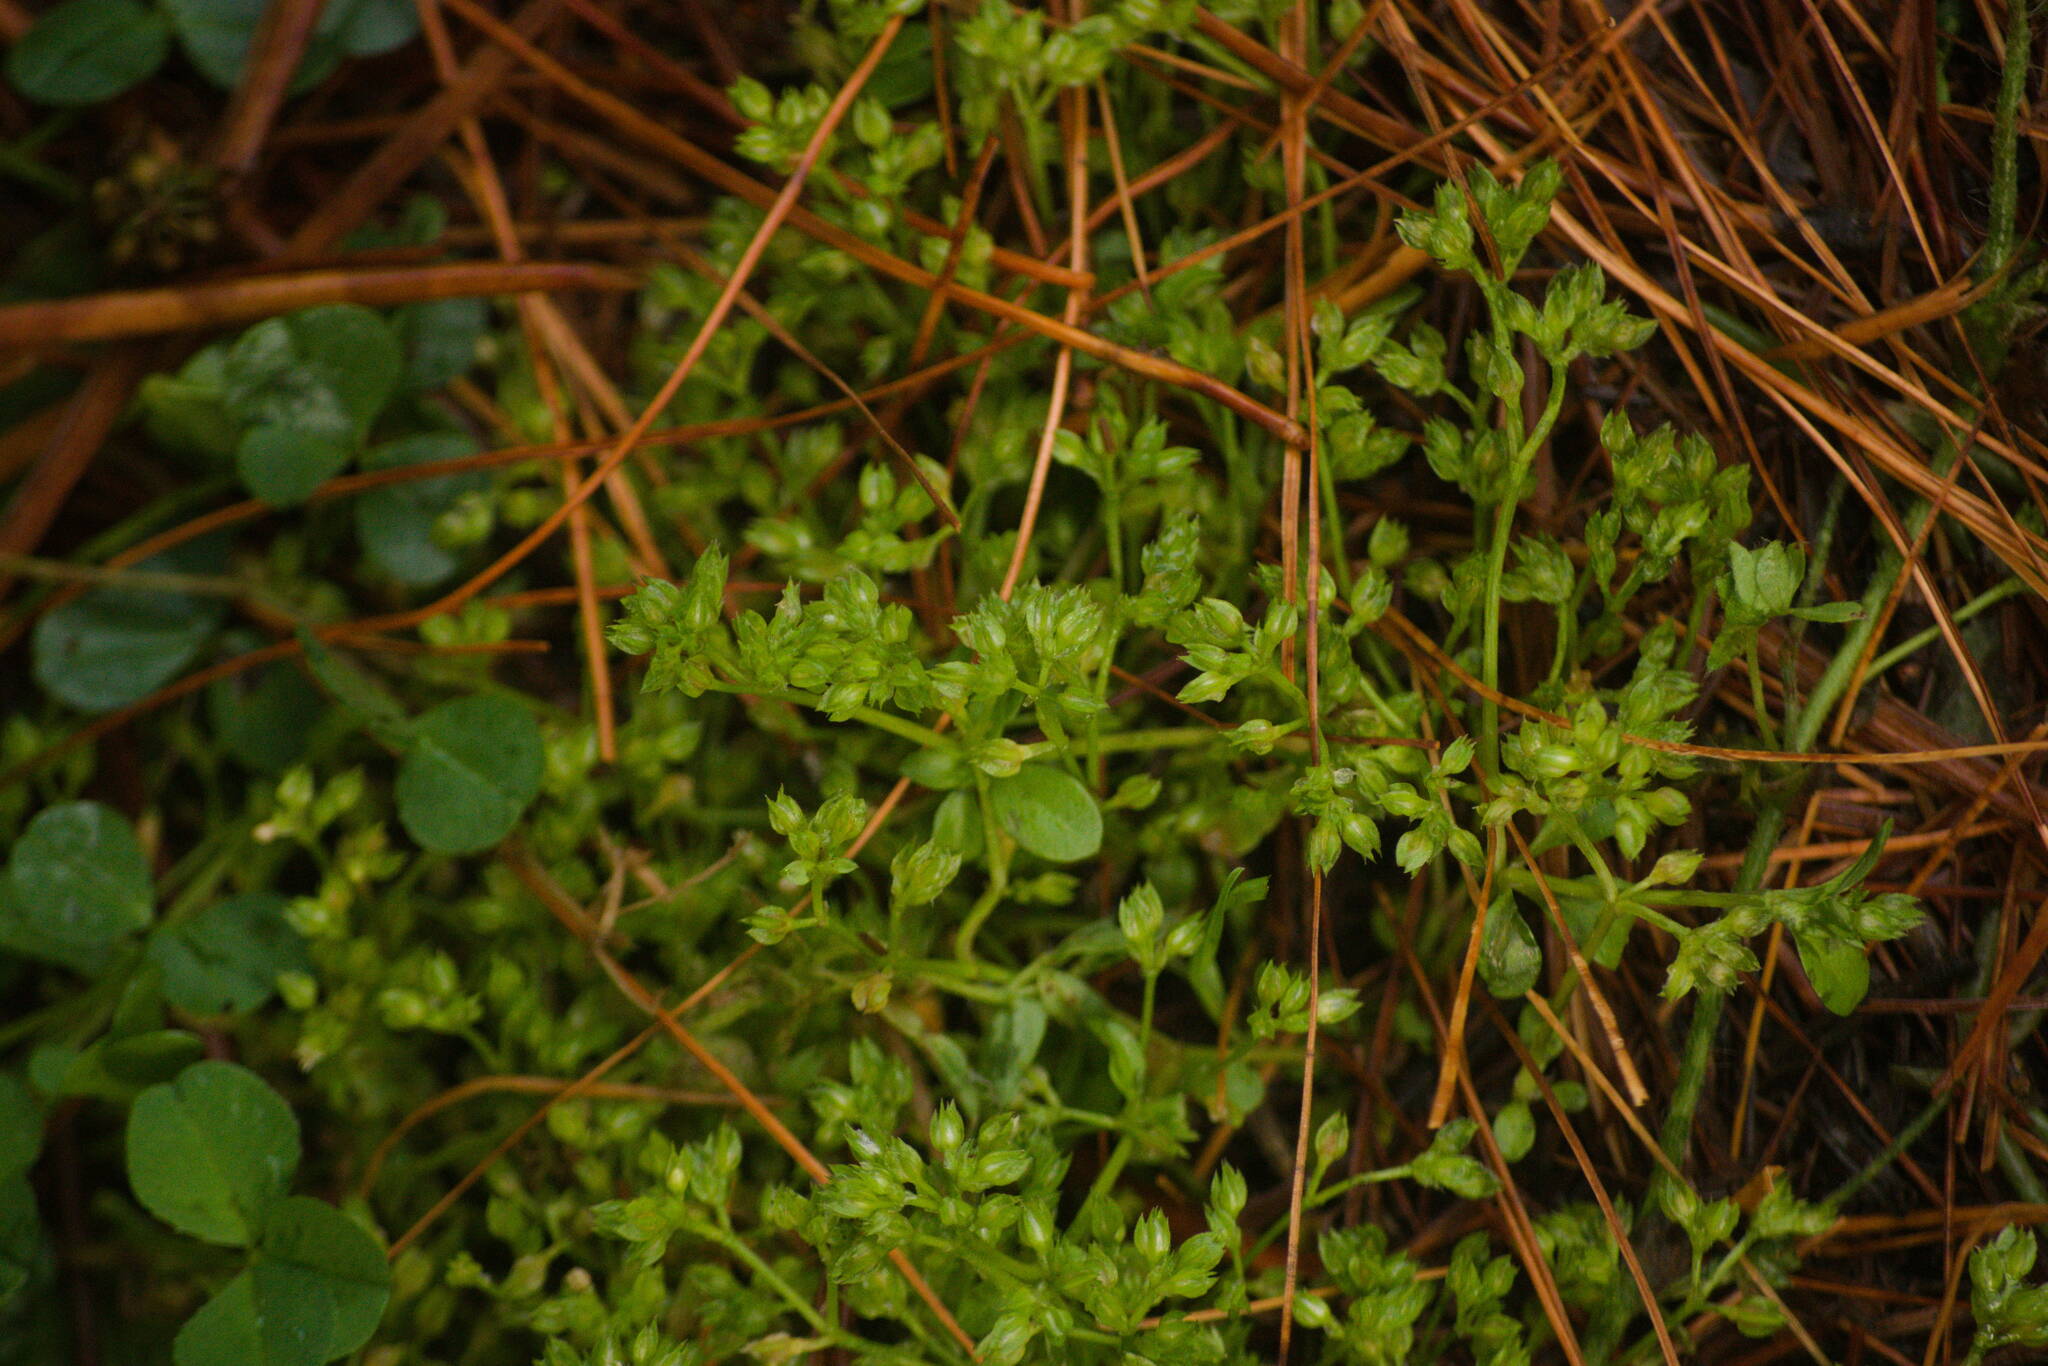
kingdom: Plantae
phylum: Tracheophyta
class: Magnoliopsida
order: Caryophyllales
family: Caryophyllaceae
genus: Polycarpon
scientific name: Polycarpon tetraphyllum
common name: Four-leaved all-seed
